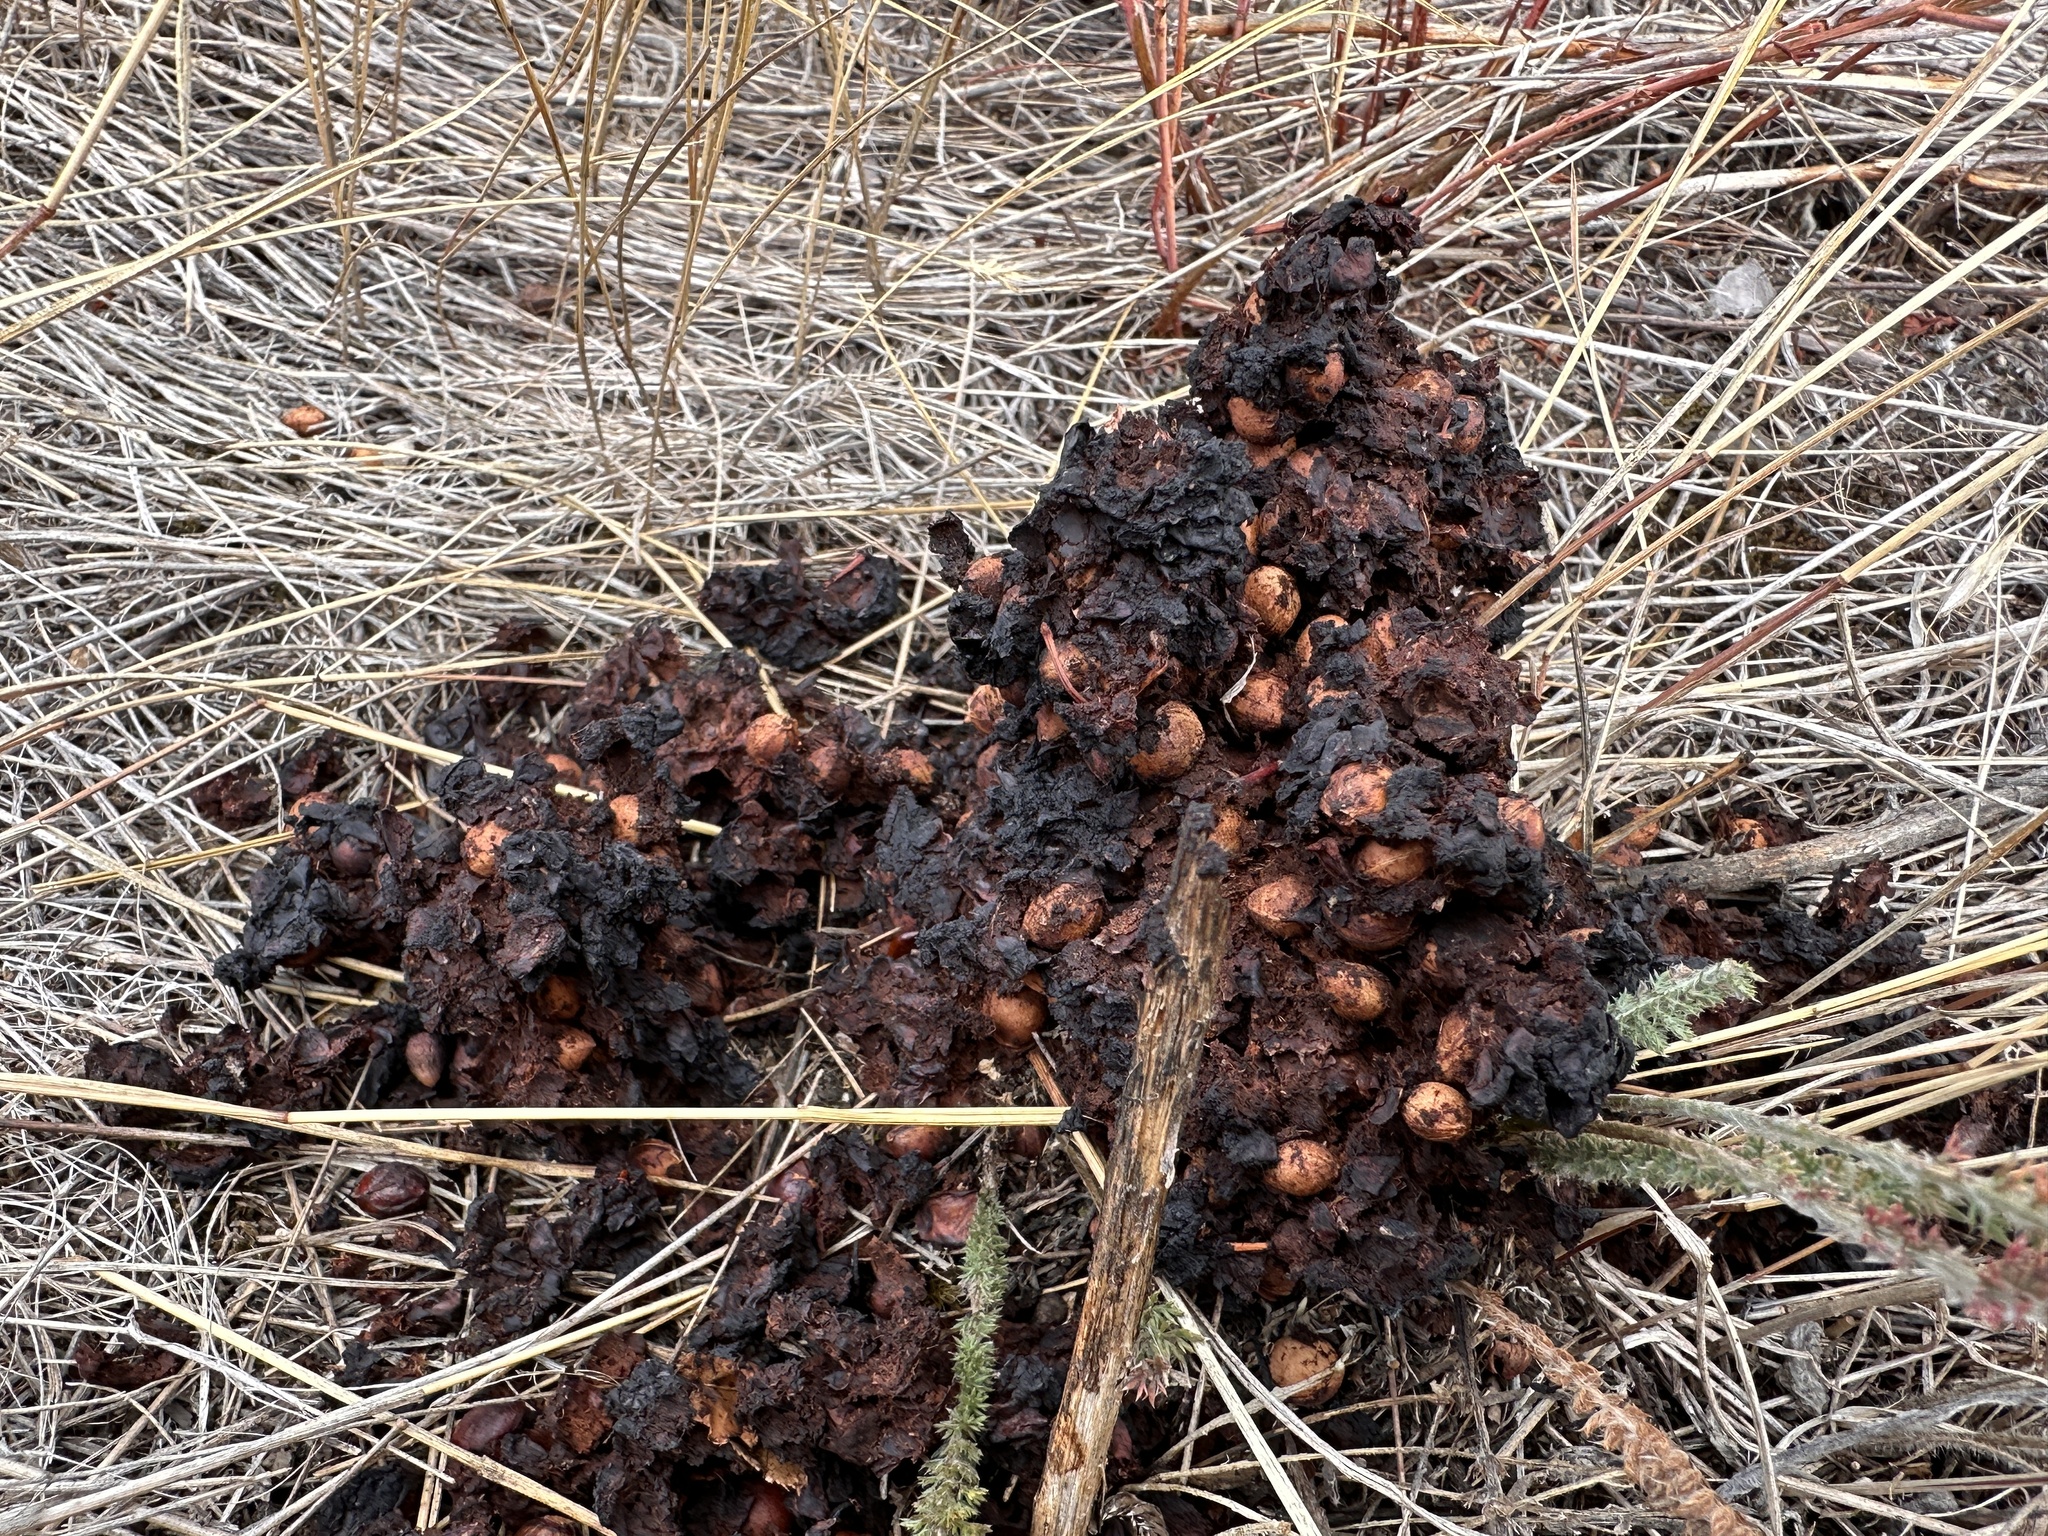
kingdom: Animalia
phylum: Chordata
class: Mammalia
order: Carnivora
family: Ursidae
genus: Ursus
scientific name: Ursus americanus
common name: American black bear
